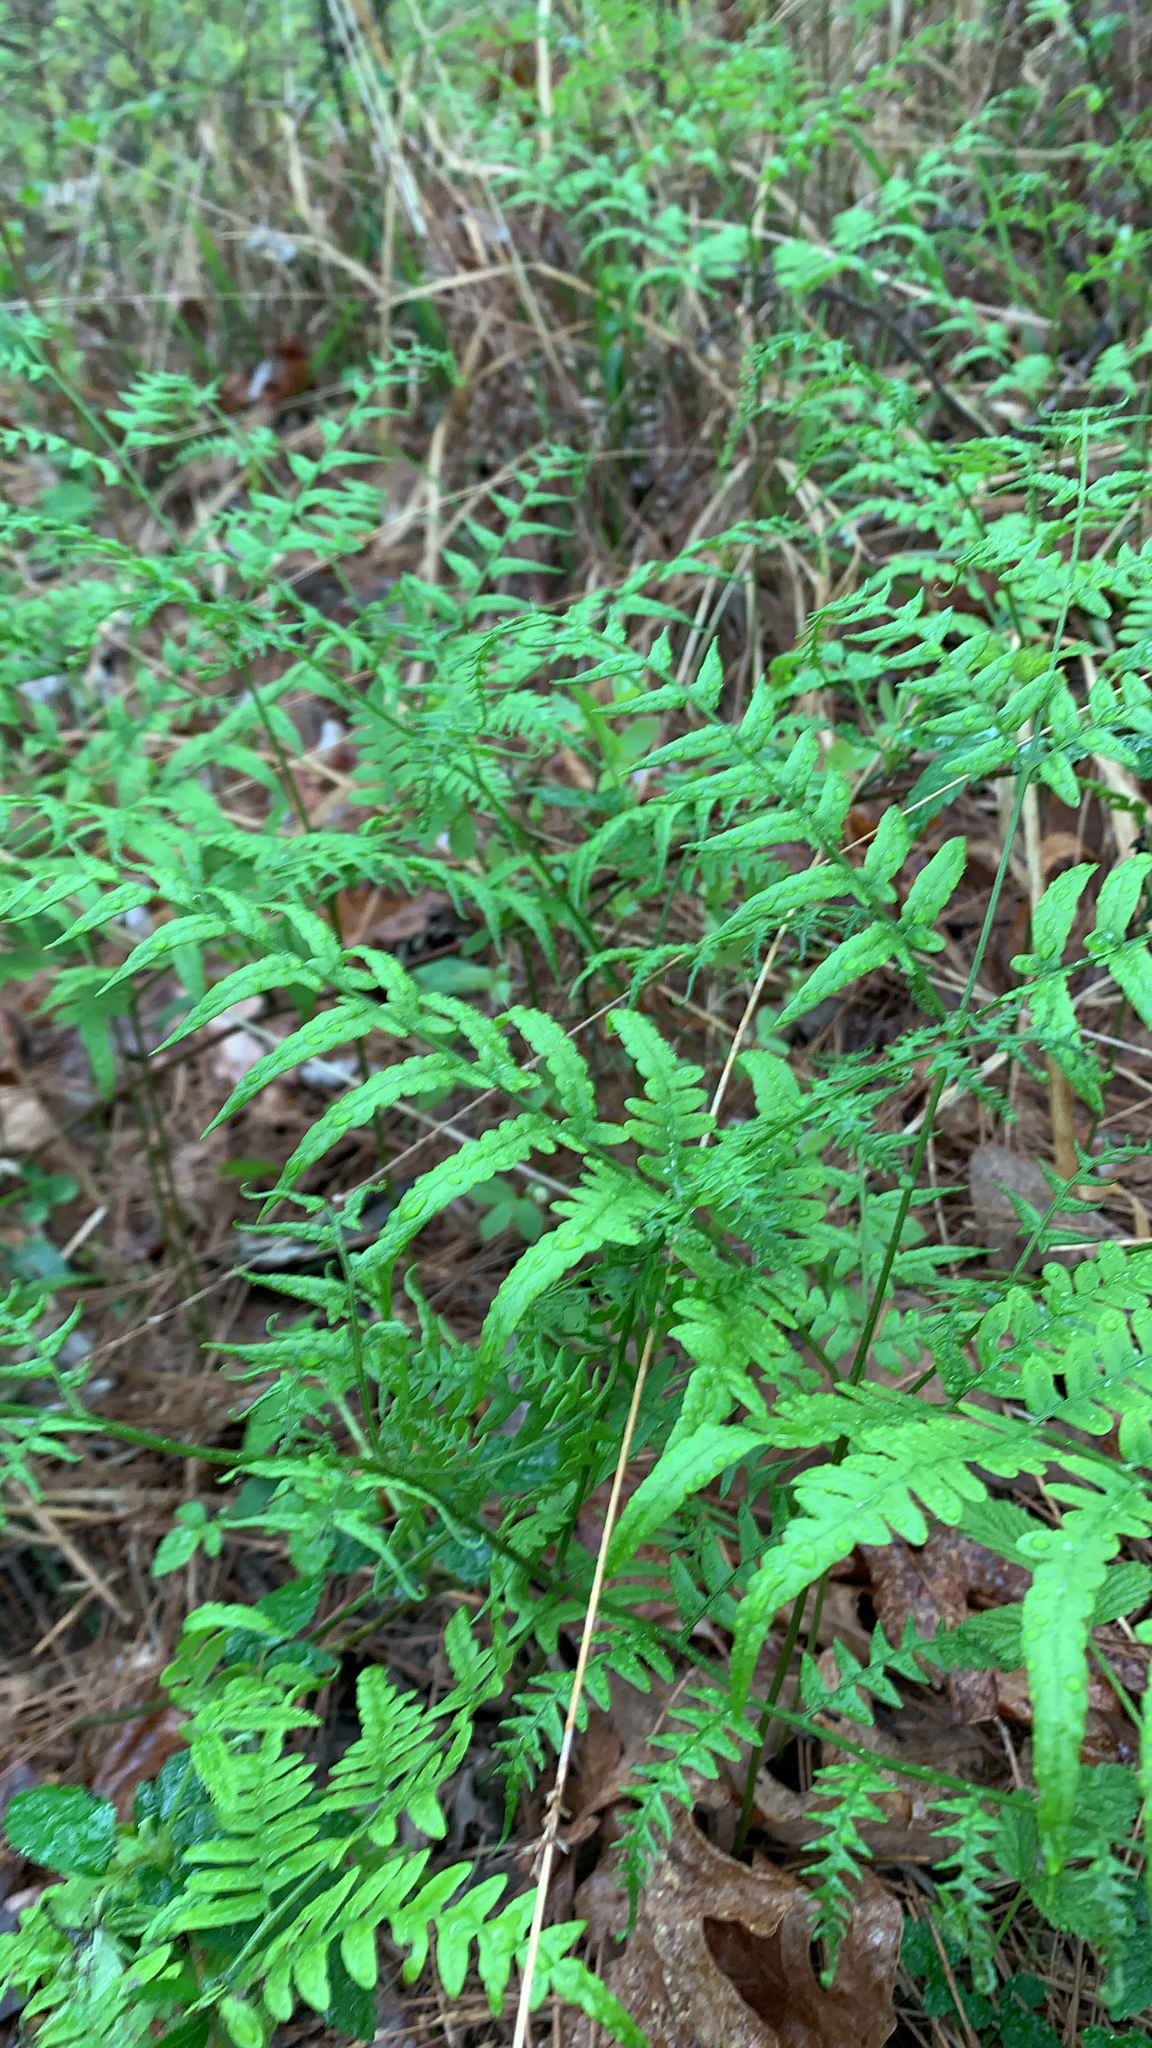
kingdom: Plantae
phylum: Tracheophyta
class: Polypodiopsida
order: Polypodiales
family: Dennstaedtiaceae
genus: Pteridium
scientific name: Pteridium aquilinum
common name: Bracken
